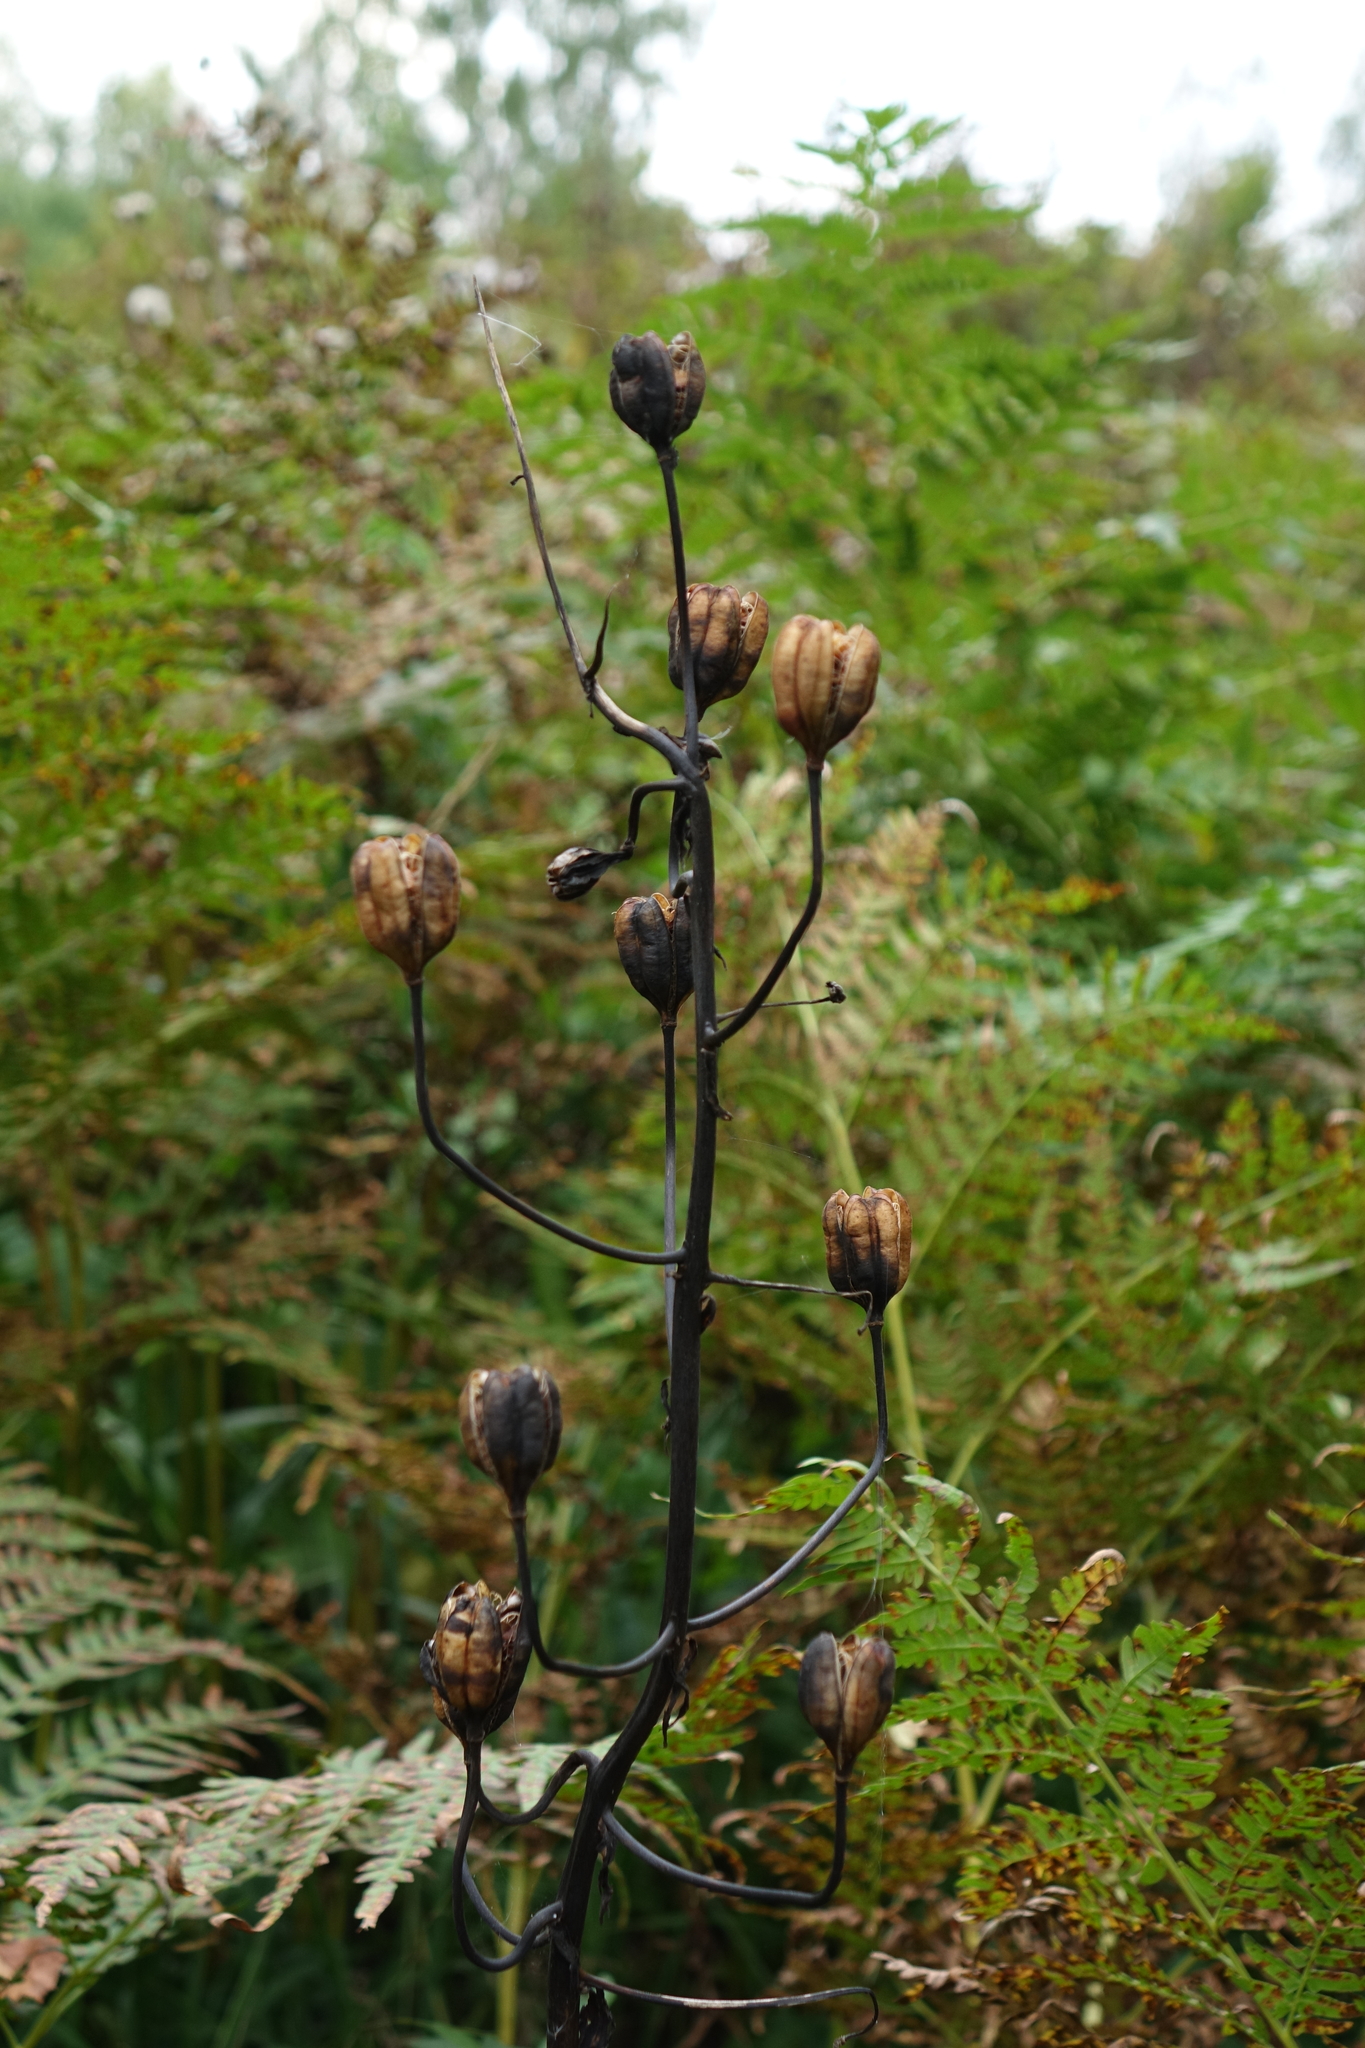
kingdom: Plantae
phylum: Tracheophyta
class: Liliopsida
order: Liliales
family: Liliaceae
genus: Lilium
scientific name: Lilium martagon
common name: Martagon lily
